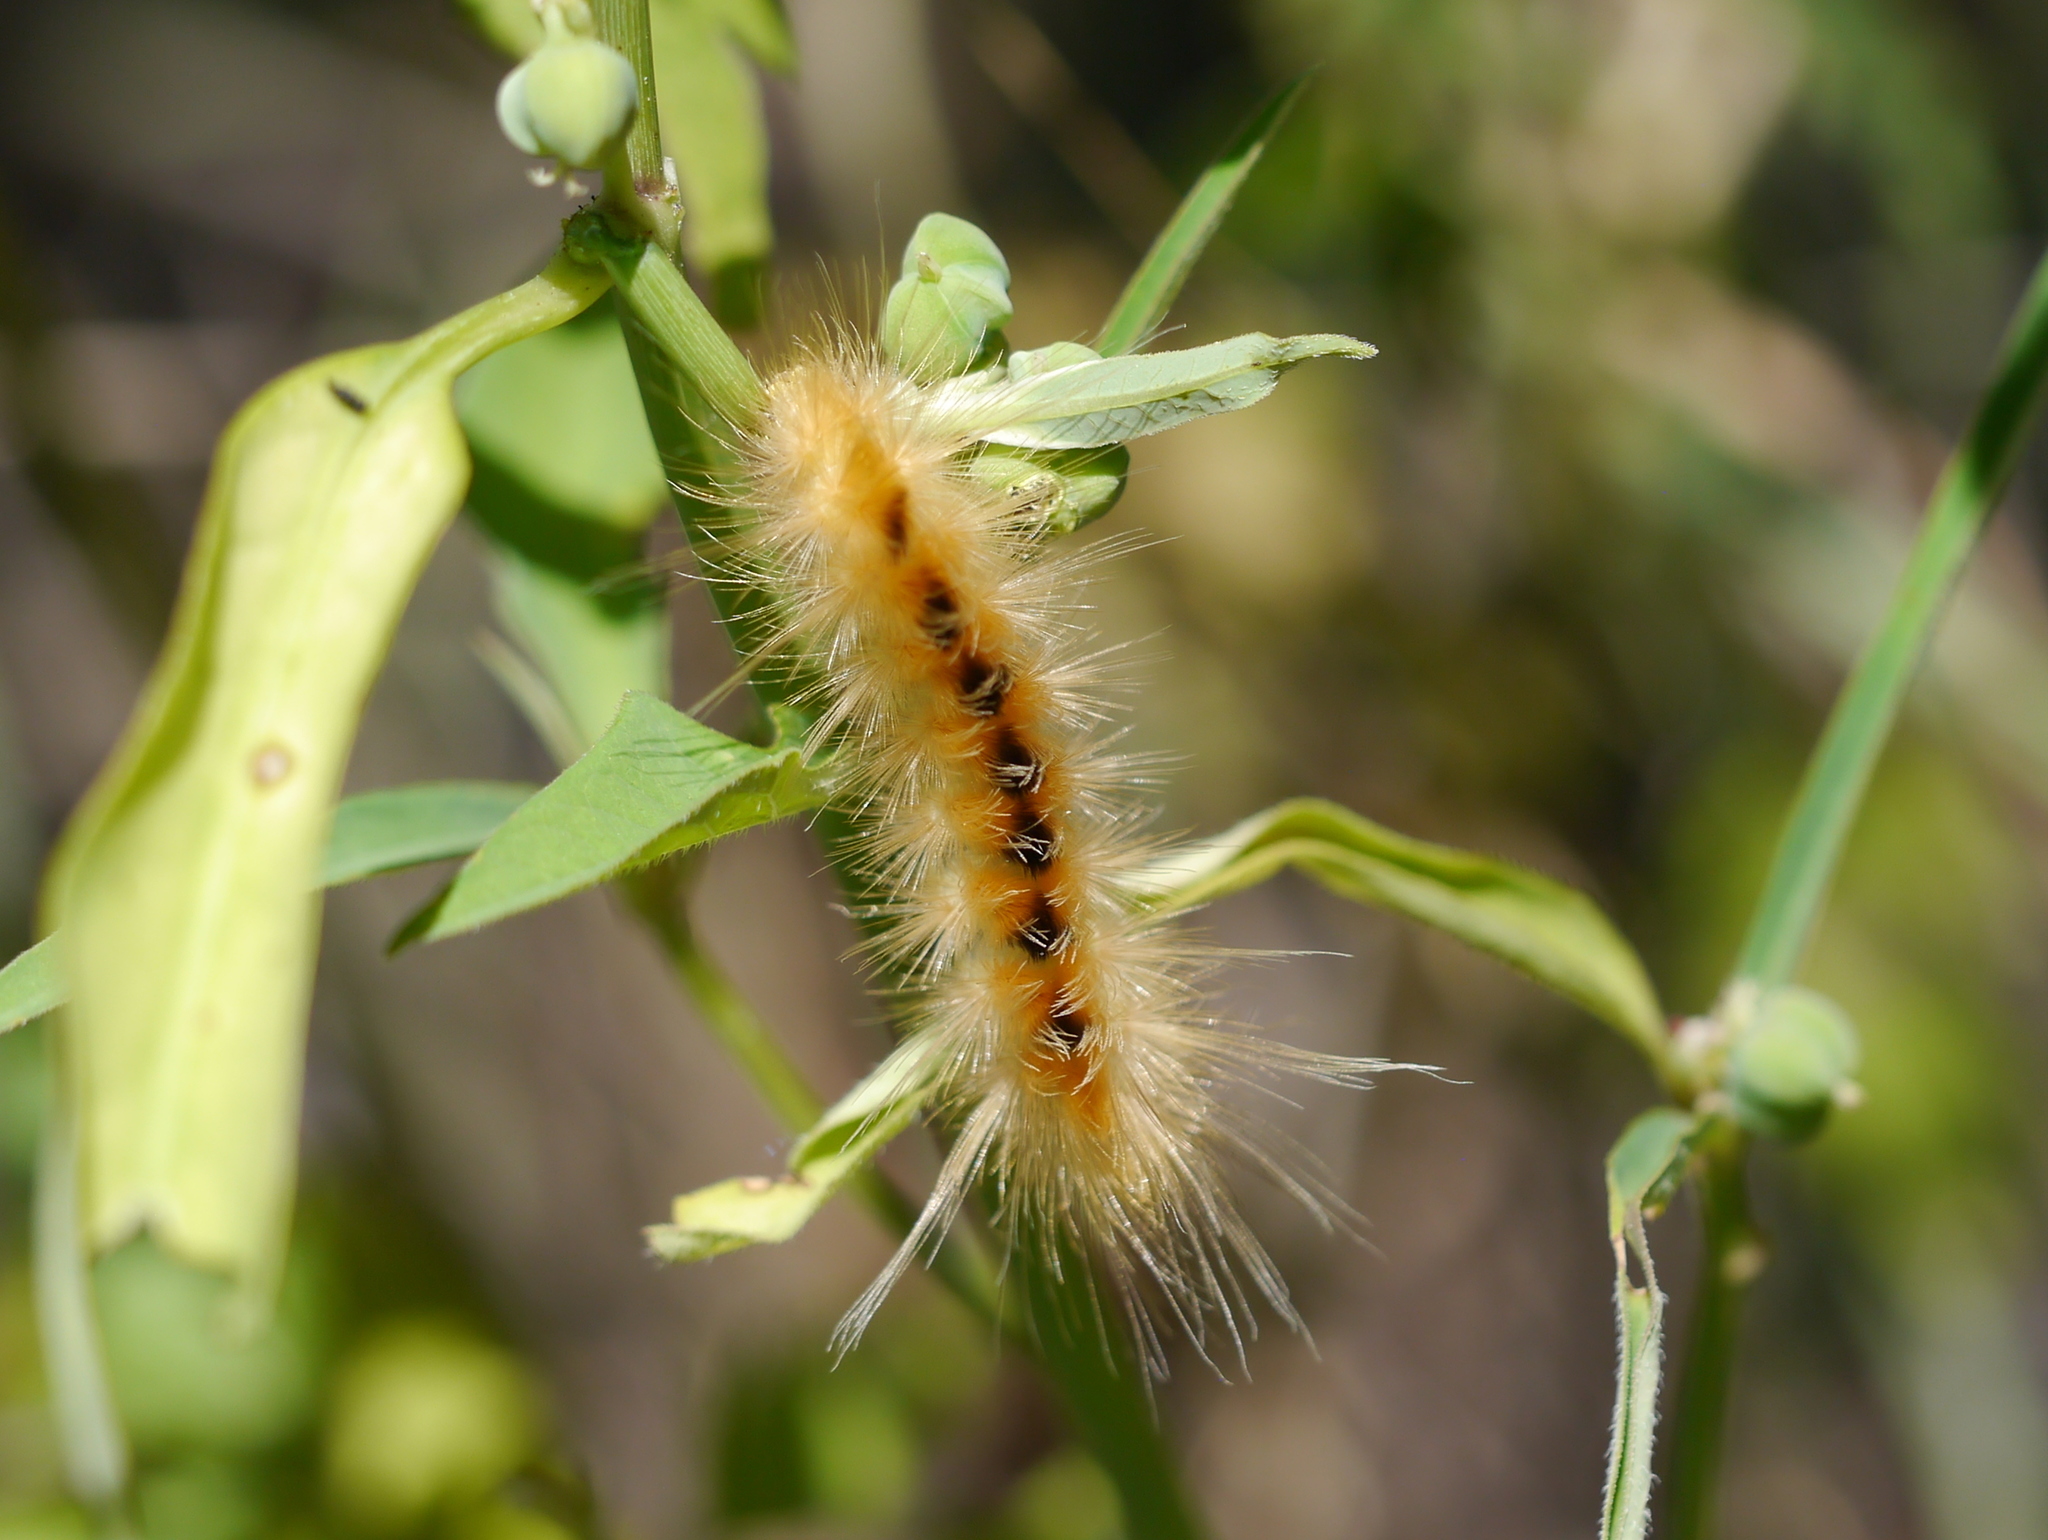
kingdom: Animalia
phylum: Arthropoda
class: Insecta
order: Lepidoptera
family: Erebidae
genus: Pygarctia
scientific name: Pygarctia roseicapitis
